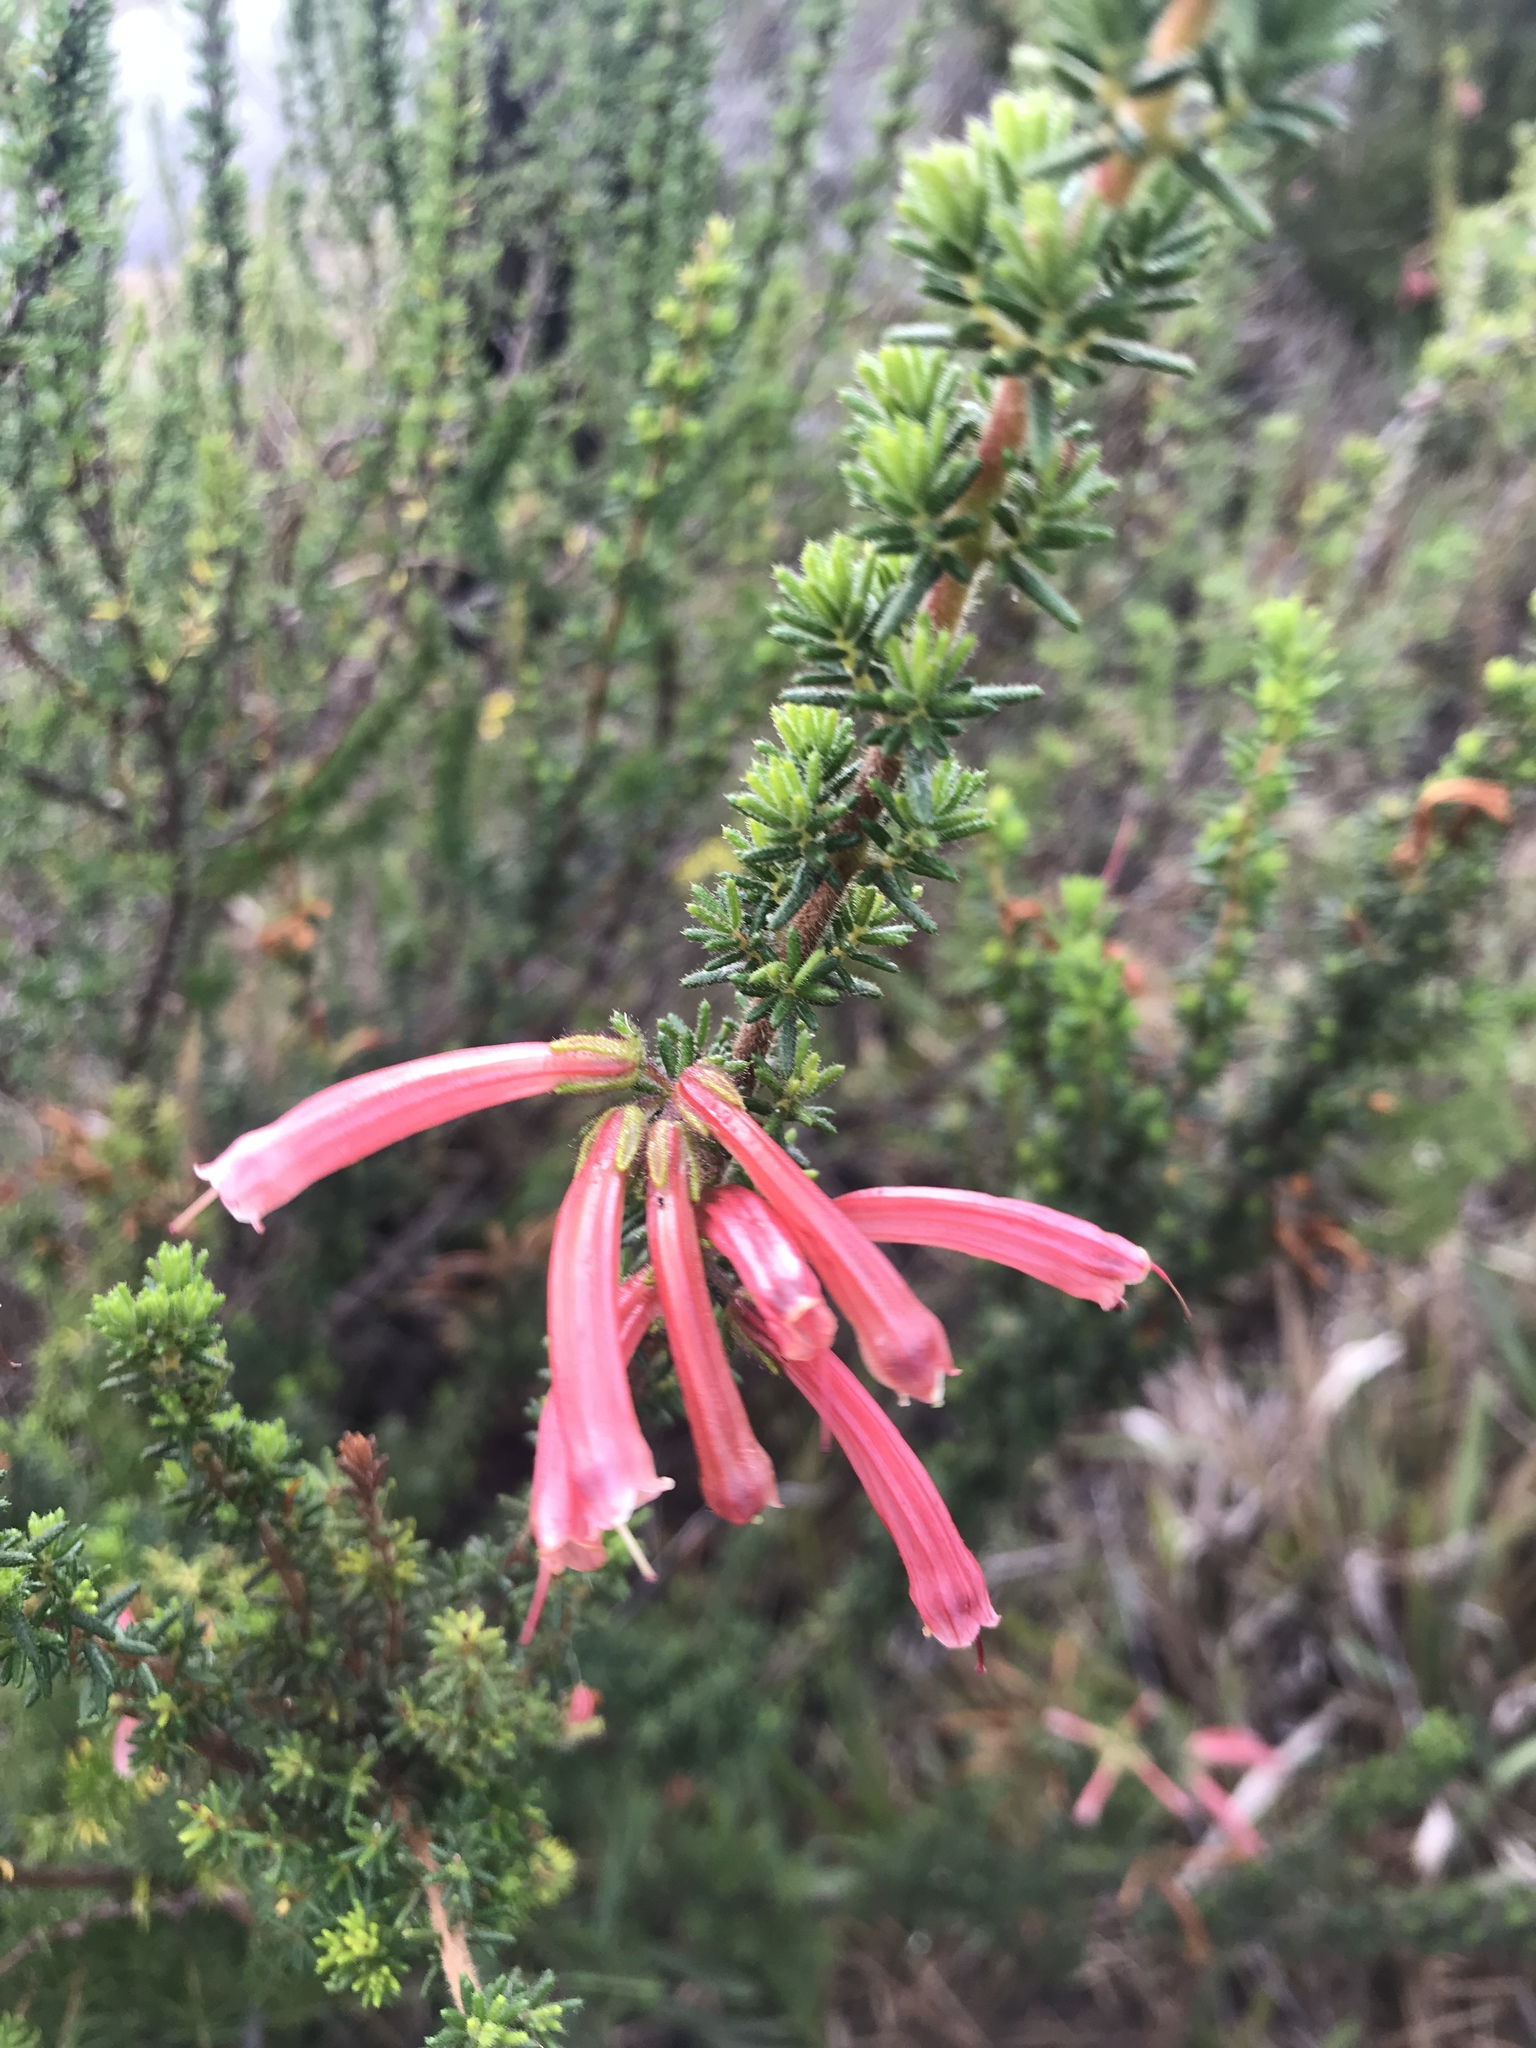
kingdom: Plantae
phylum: Tracheophyta
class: Magnoliopsida
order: Ericales
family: Ericaceae
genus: Erica
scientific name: Erica glandulosa
